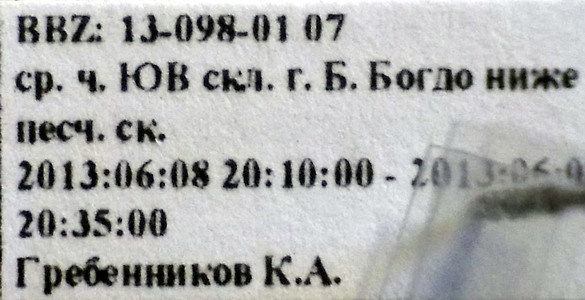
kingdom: Animalia
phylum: Arthropoda
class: Insecta
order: Hemiptera
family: Lygaeidae
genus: Ortholomus
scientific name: Ortholomus punctipennis
